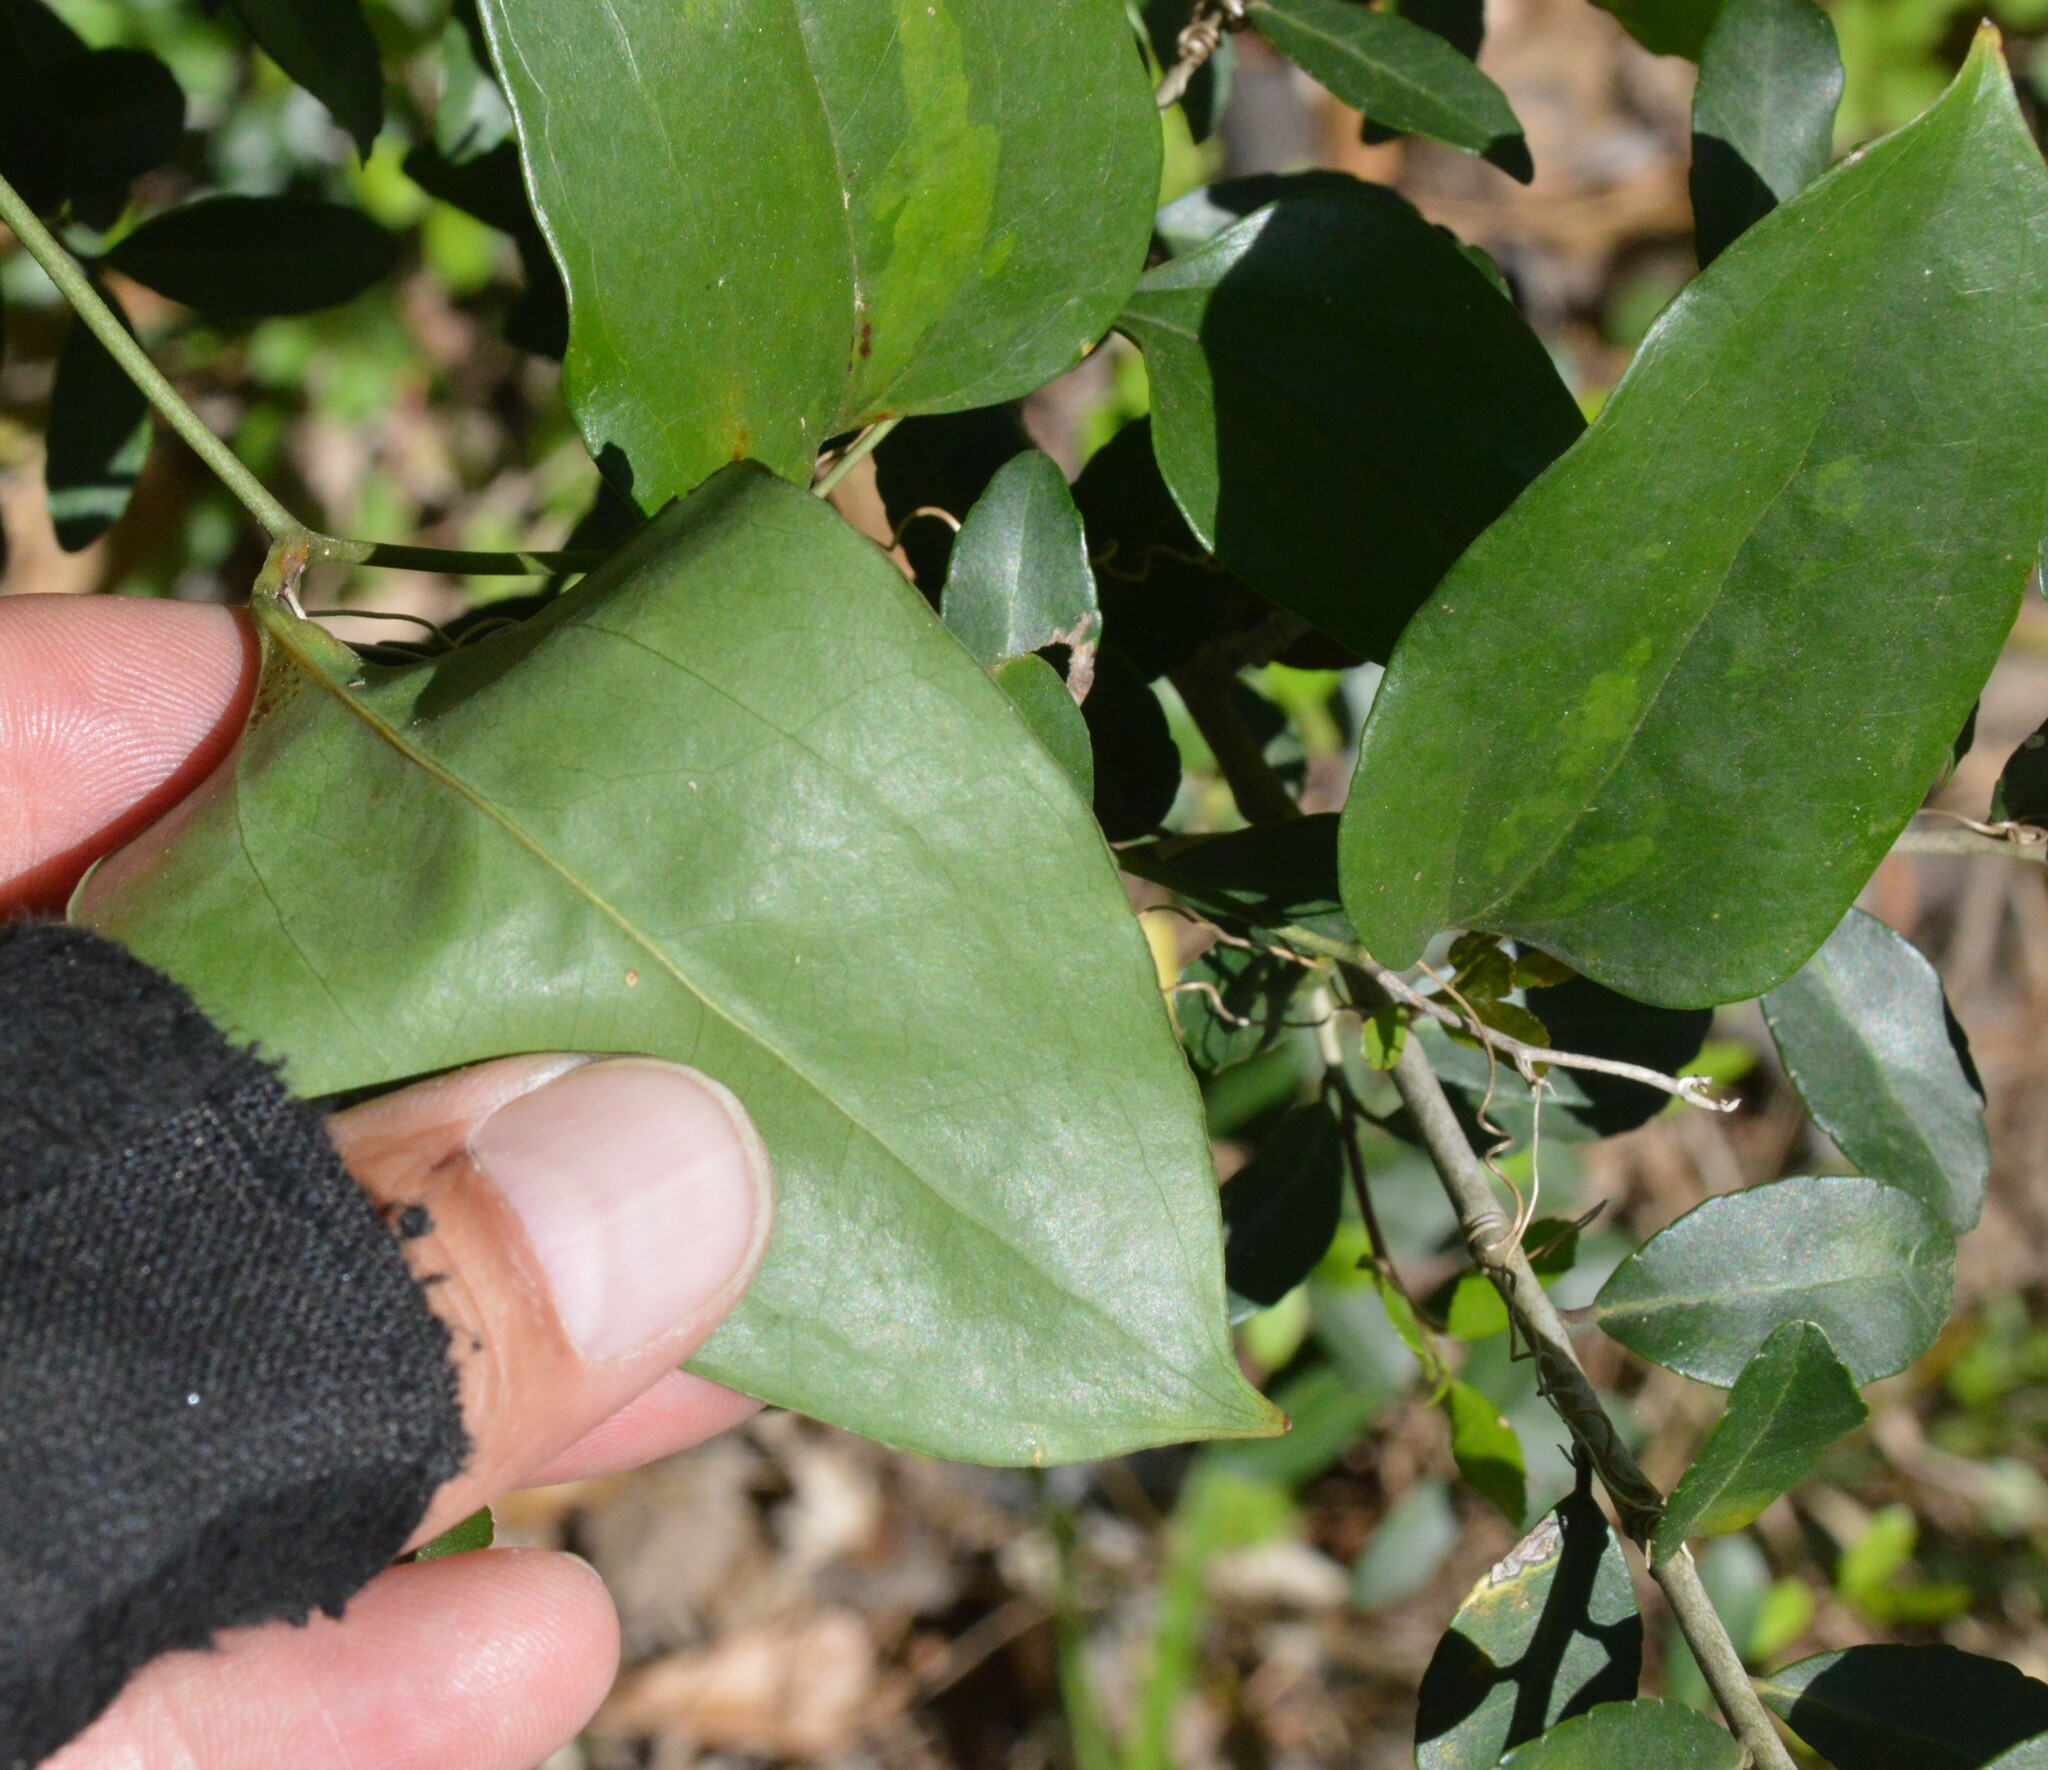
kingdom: Plantae
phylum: Tracheophyta
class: Liliopsida
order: Liliales
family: Smilacaceae
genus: Smilax
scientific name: Smilax maritima
